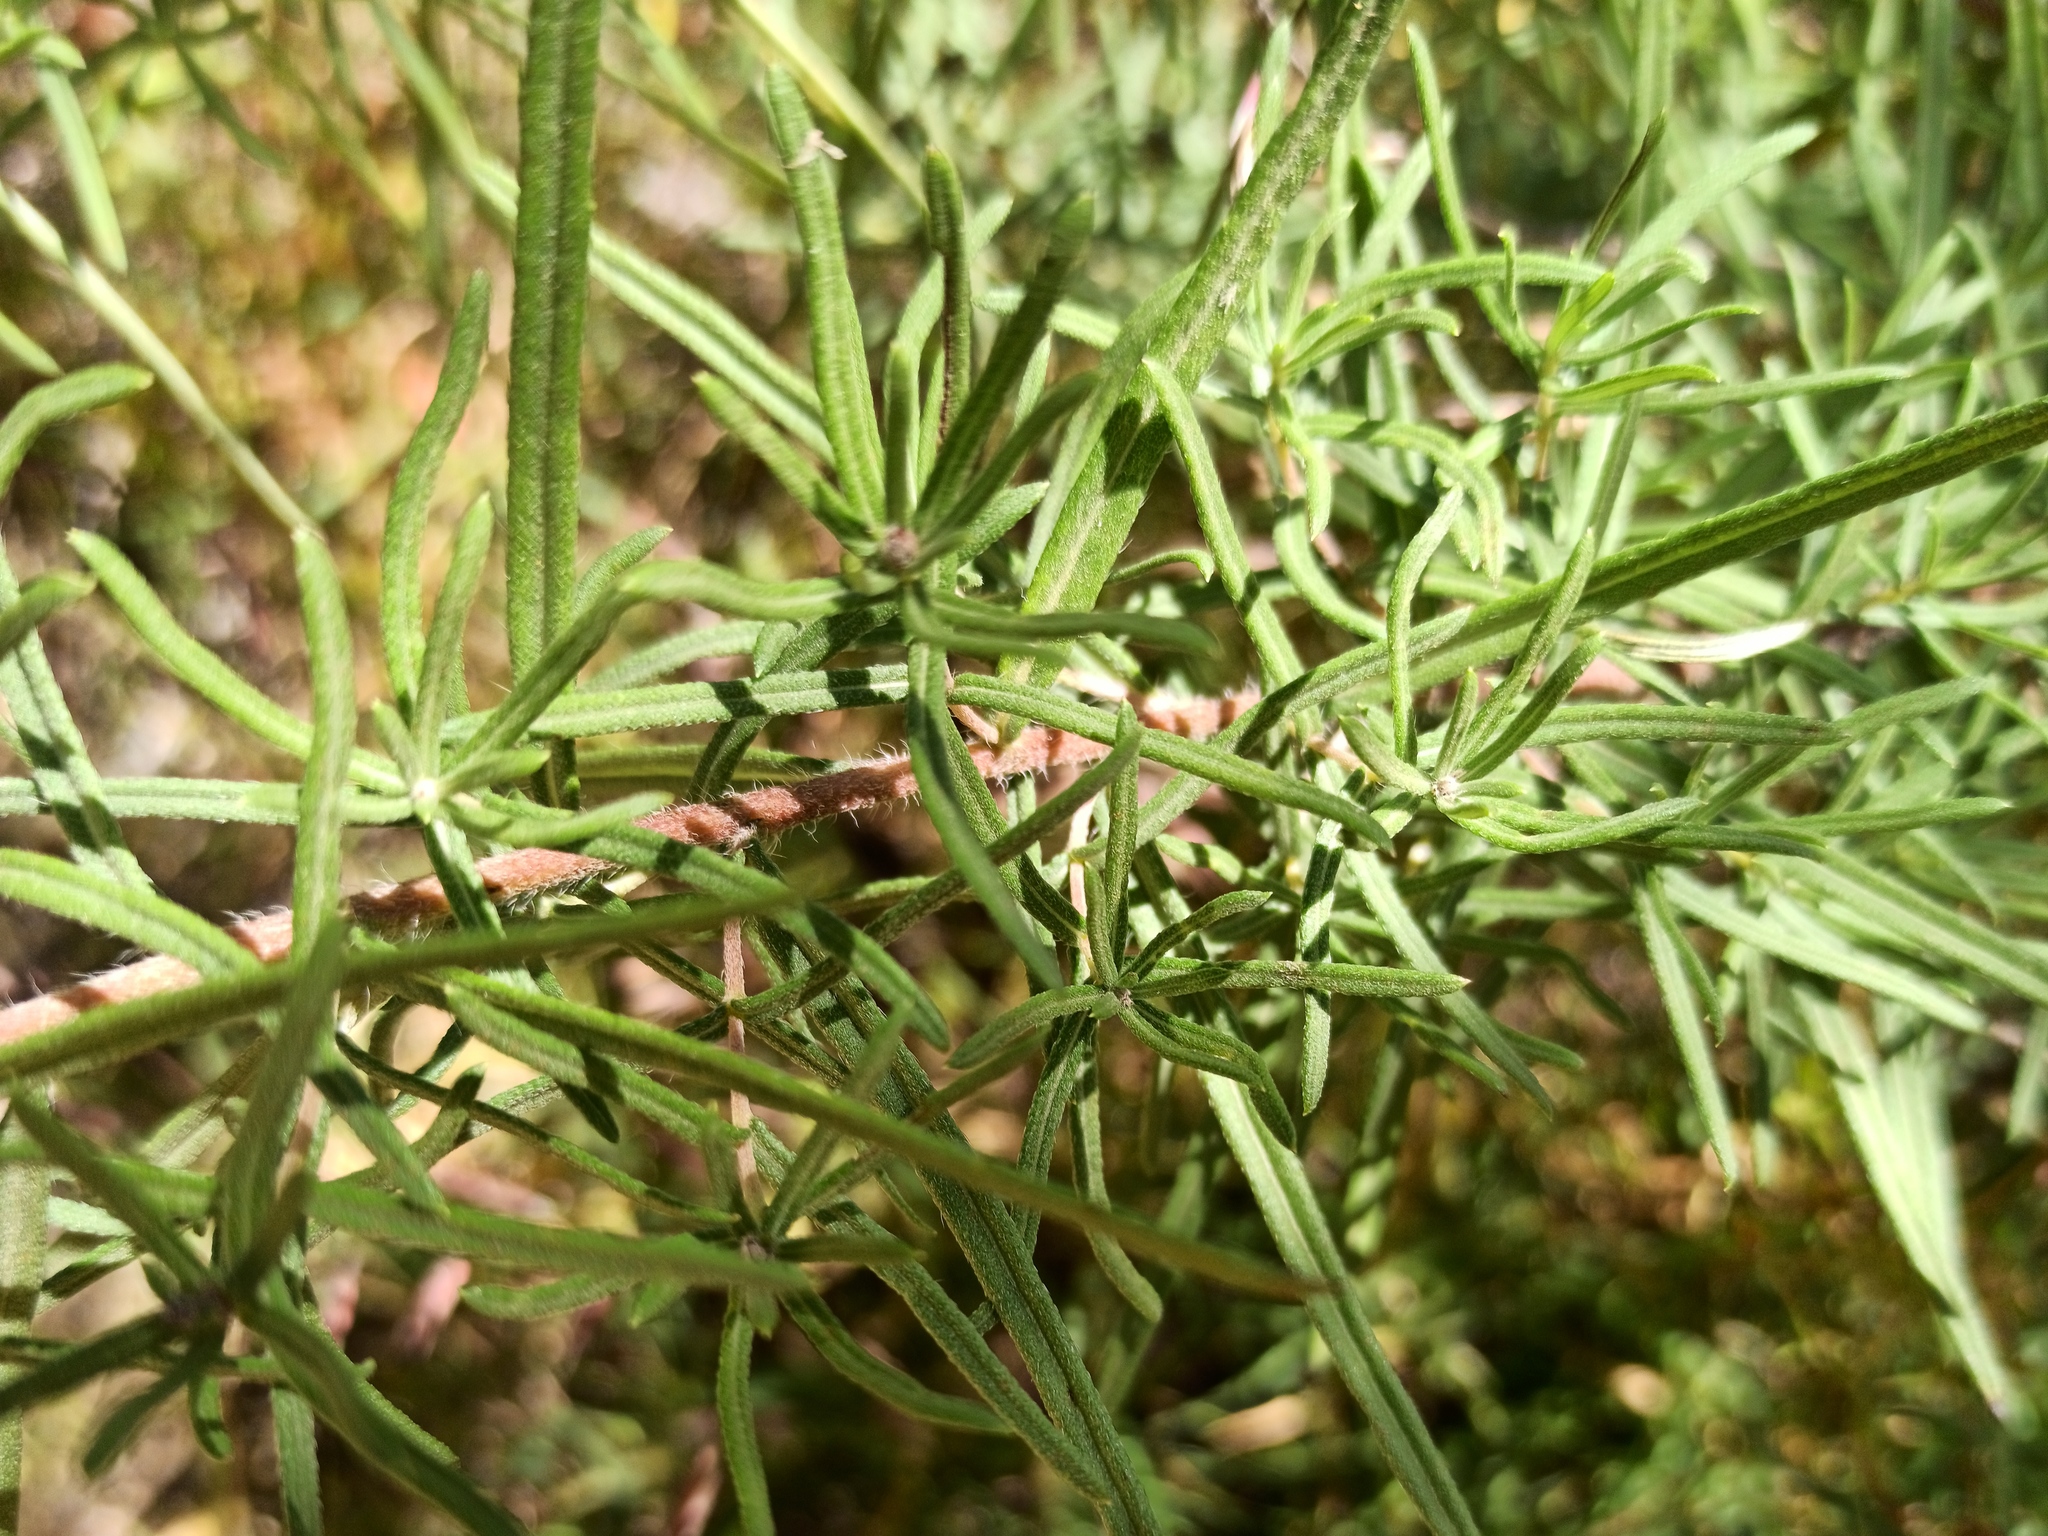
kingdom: Plantae
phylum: Tracheophyta
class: Magnoliopsida
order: Asterales
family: Asteraceae
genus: Aldama
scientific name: Aldama linearis
